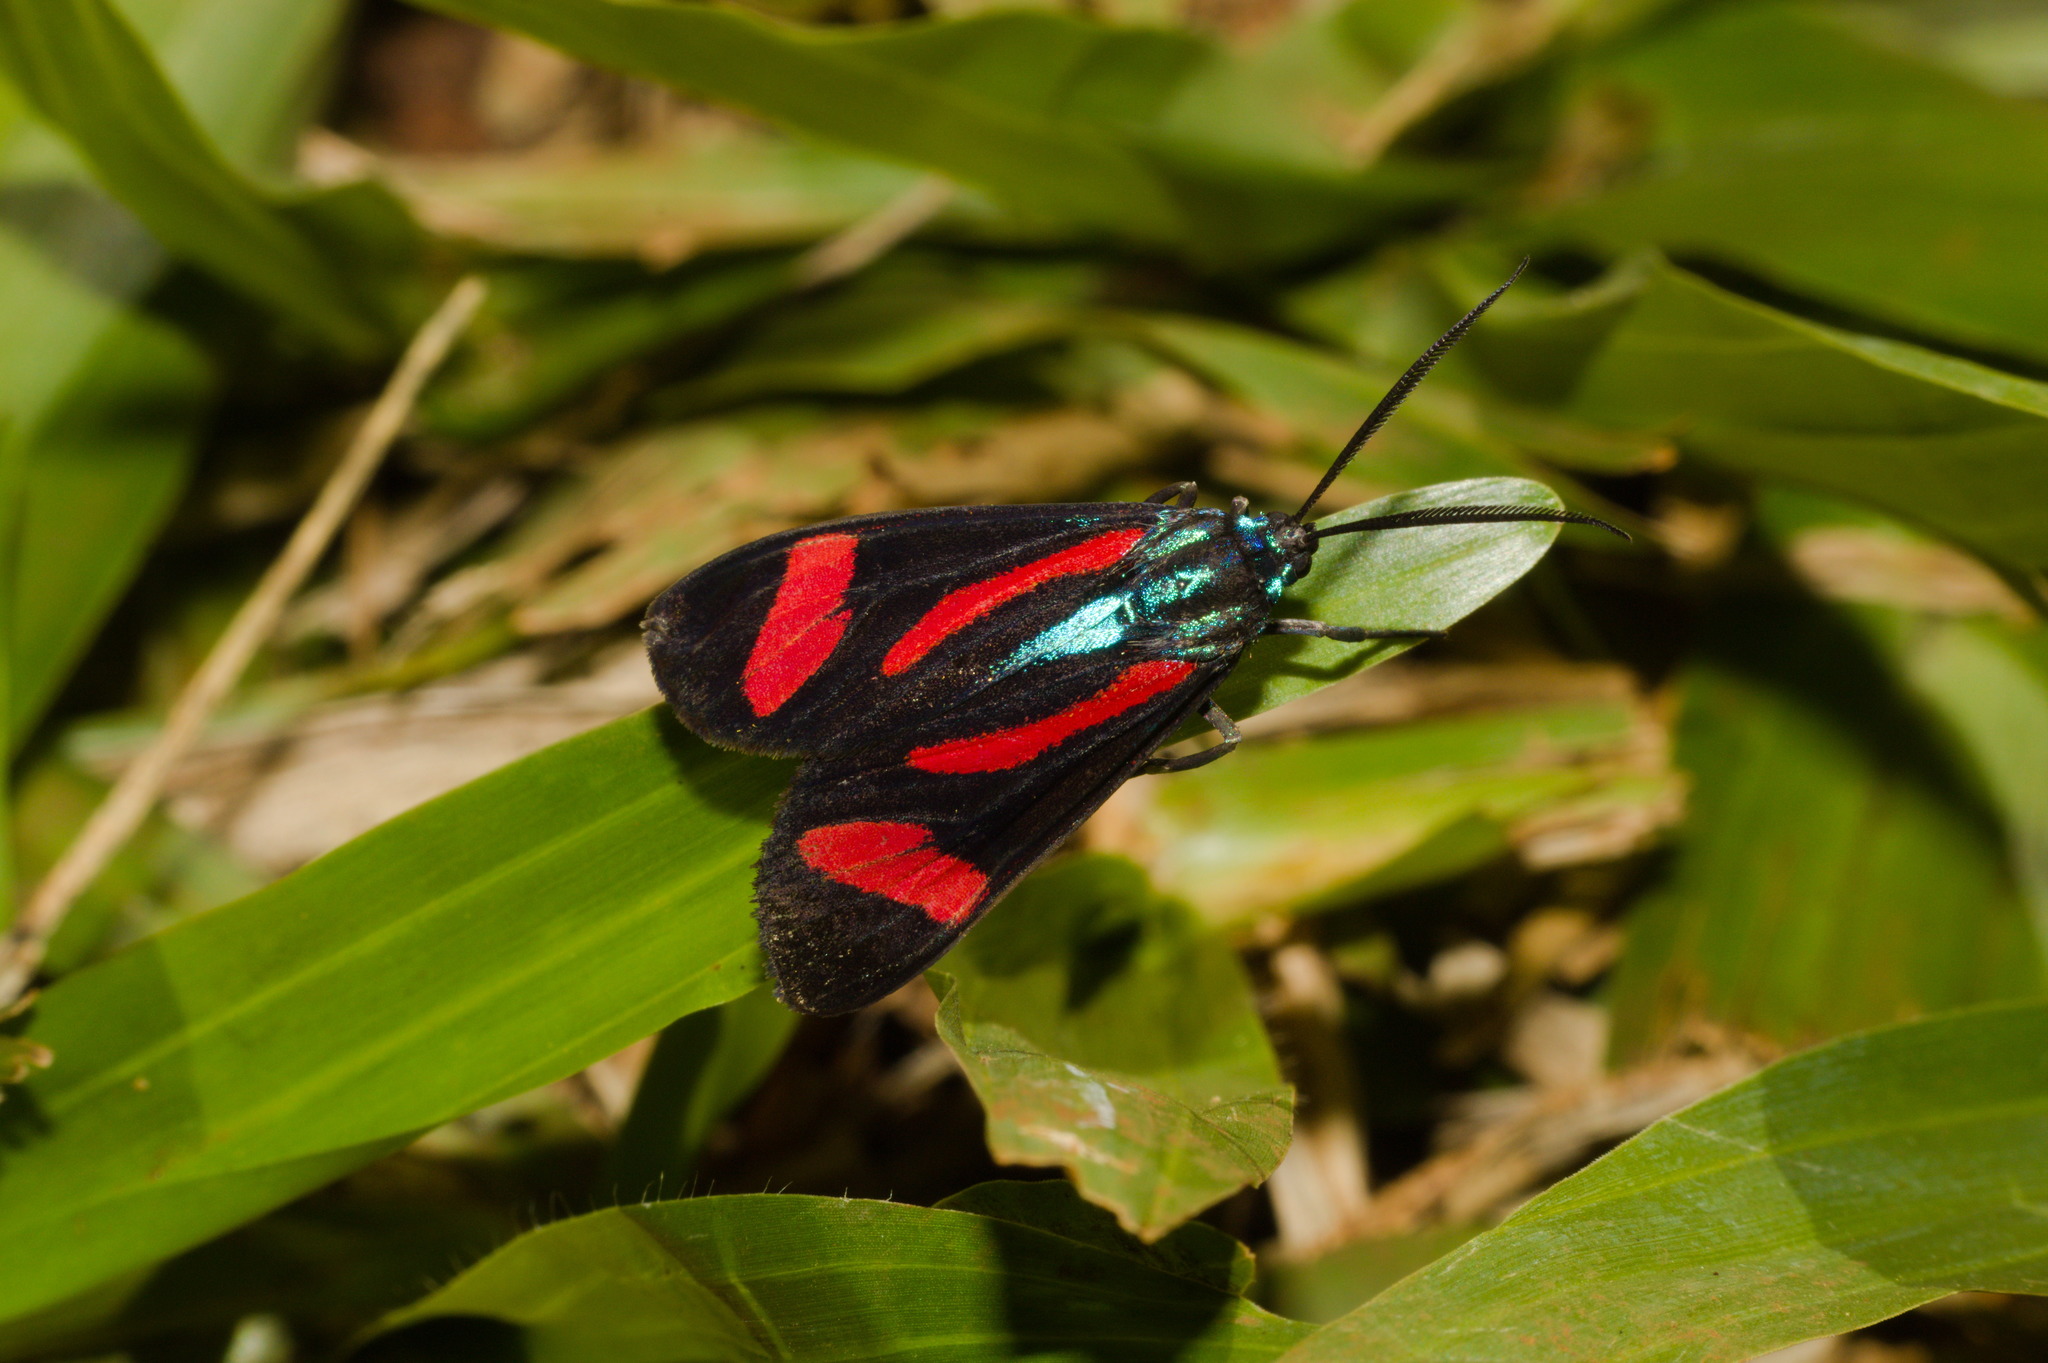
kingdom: Animalia
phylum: Arthropoda
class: Insecta
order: Lepidoptera
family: Erebidae
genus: Cyanopepla
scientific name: Cyanopepla jucunda
